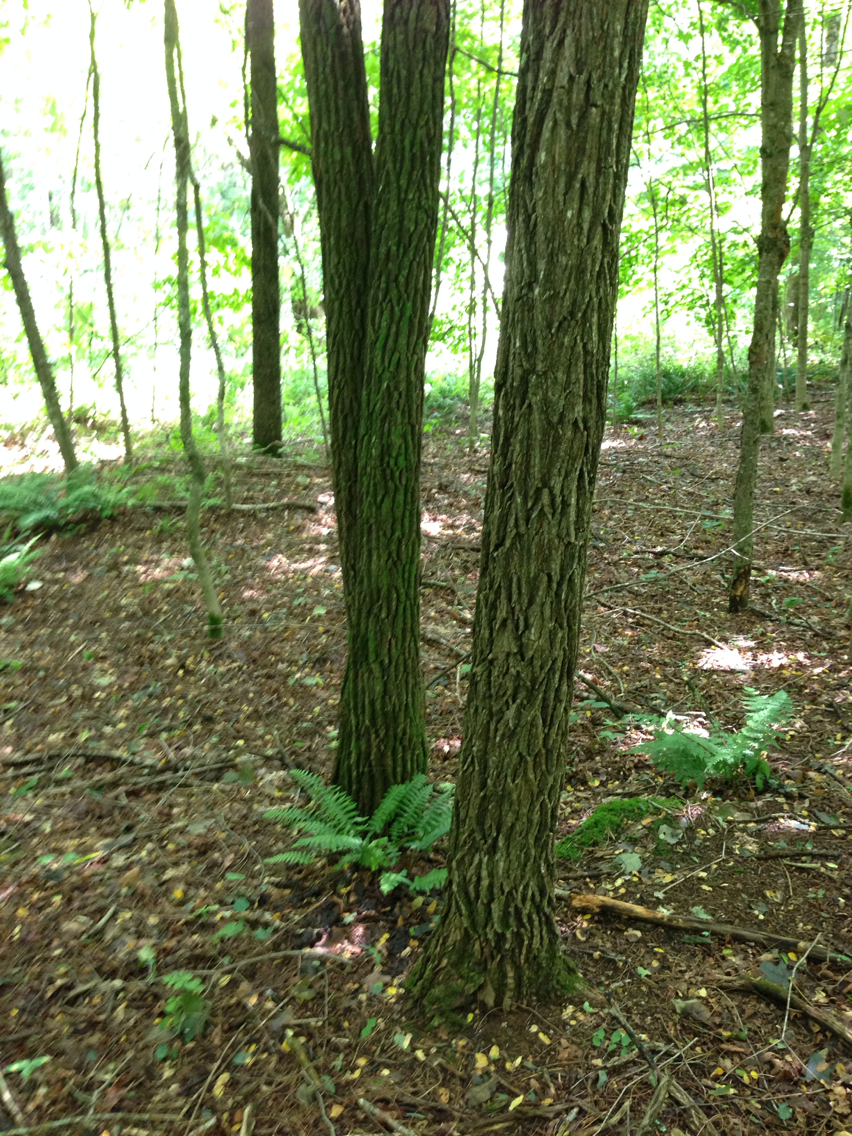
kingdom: Plantae
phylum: Tracheophyta
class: Magnoliopsida
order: Fabales
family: Fabaceae
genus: Robinia
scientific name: Robinia pseudoacacia
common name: Black locust
